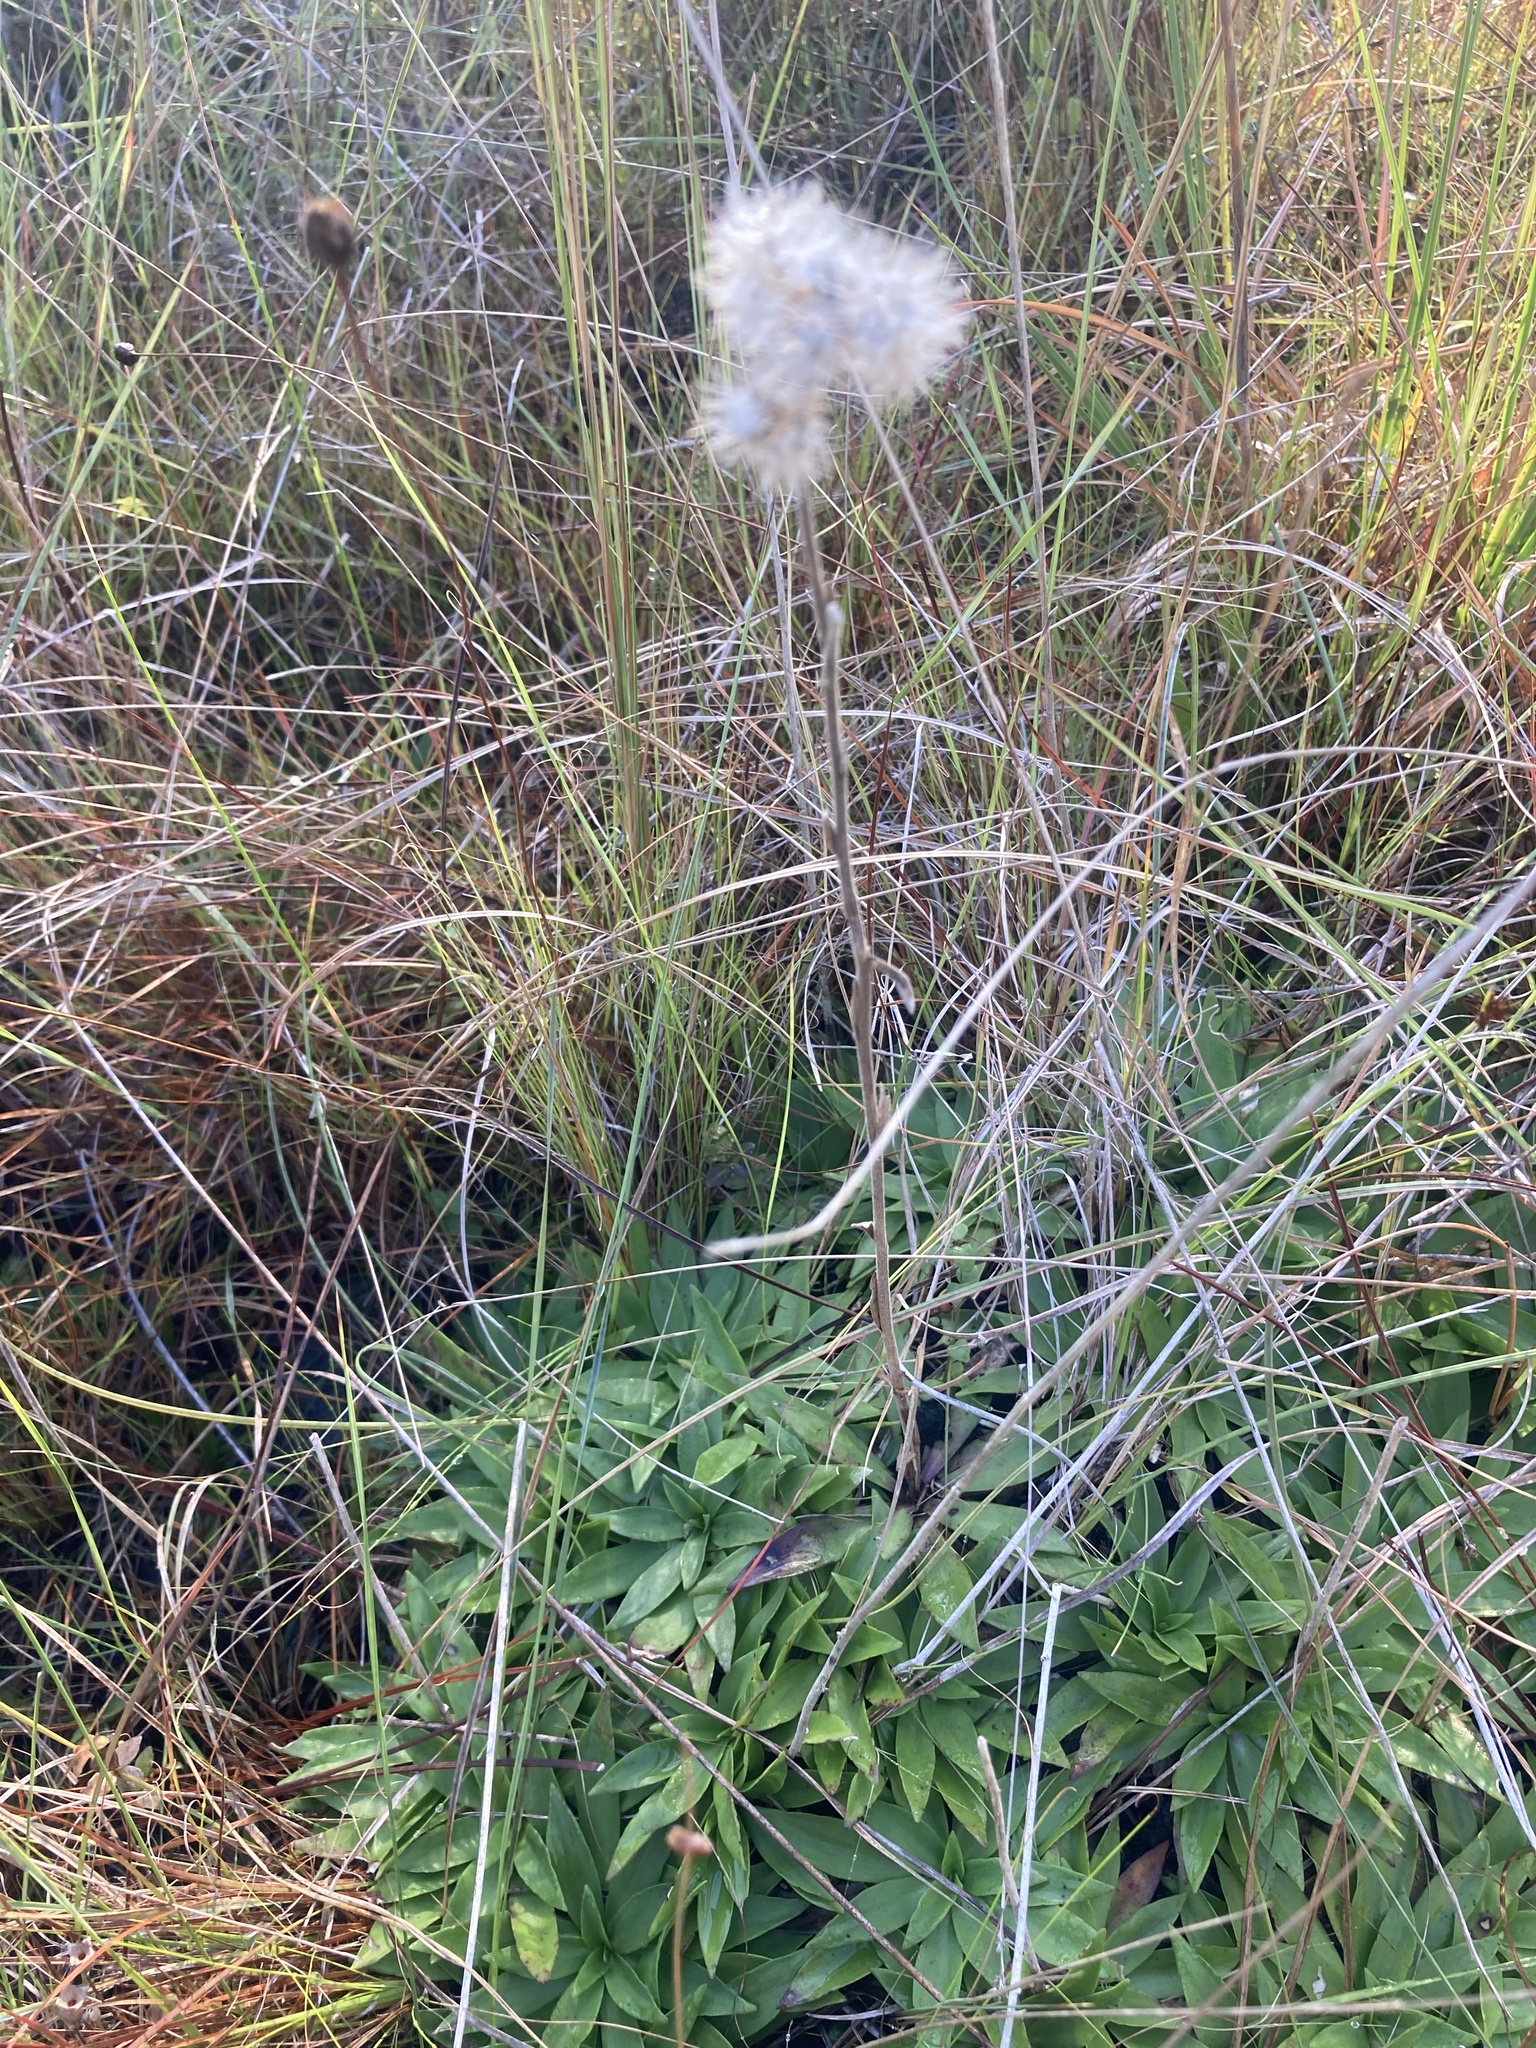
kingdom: Plantae
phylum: Tracheophyta
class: Magnoliopsida
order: Asterales
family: Asteraceae
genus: Carphephorus
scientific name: Carphephorus carnosus
